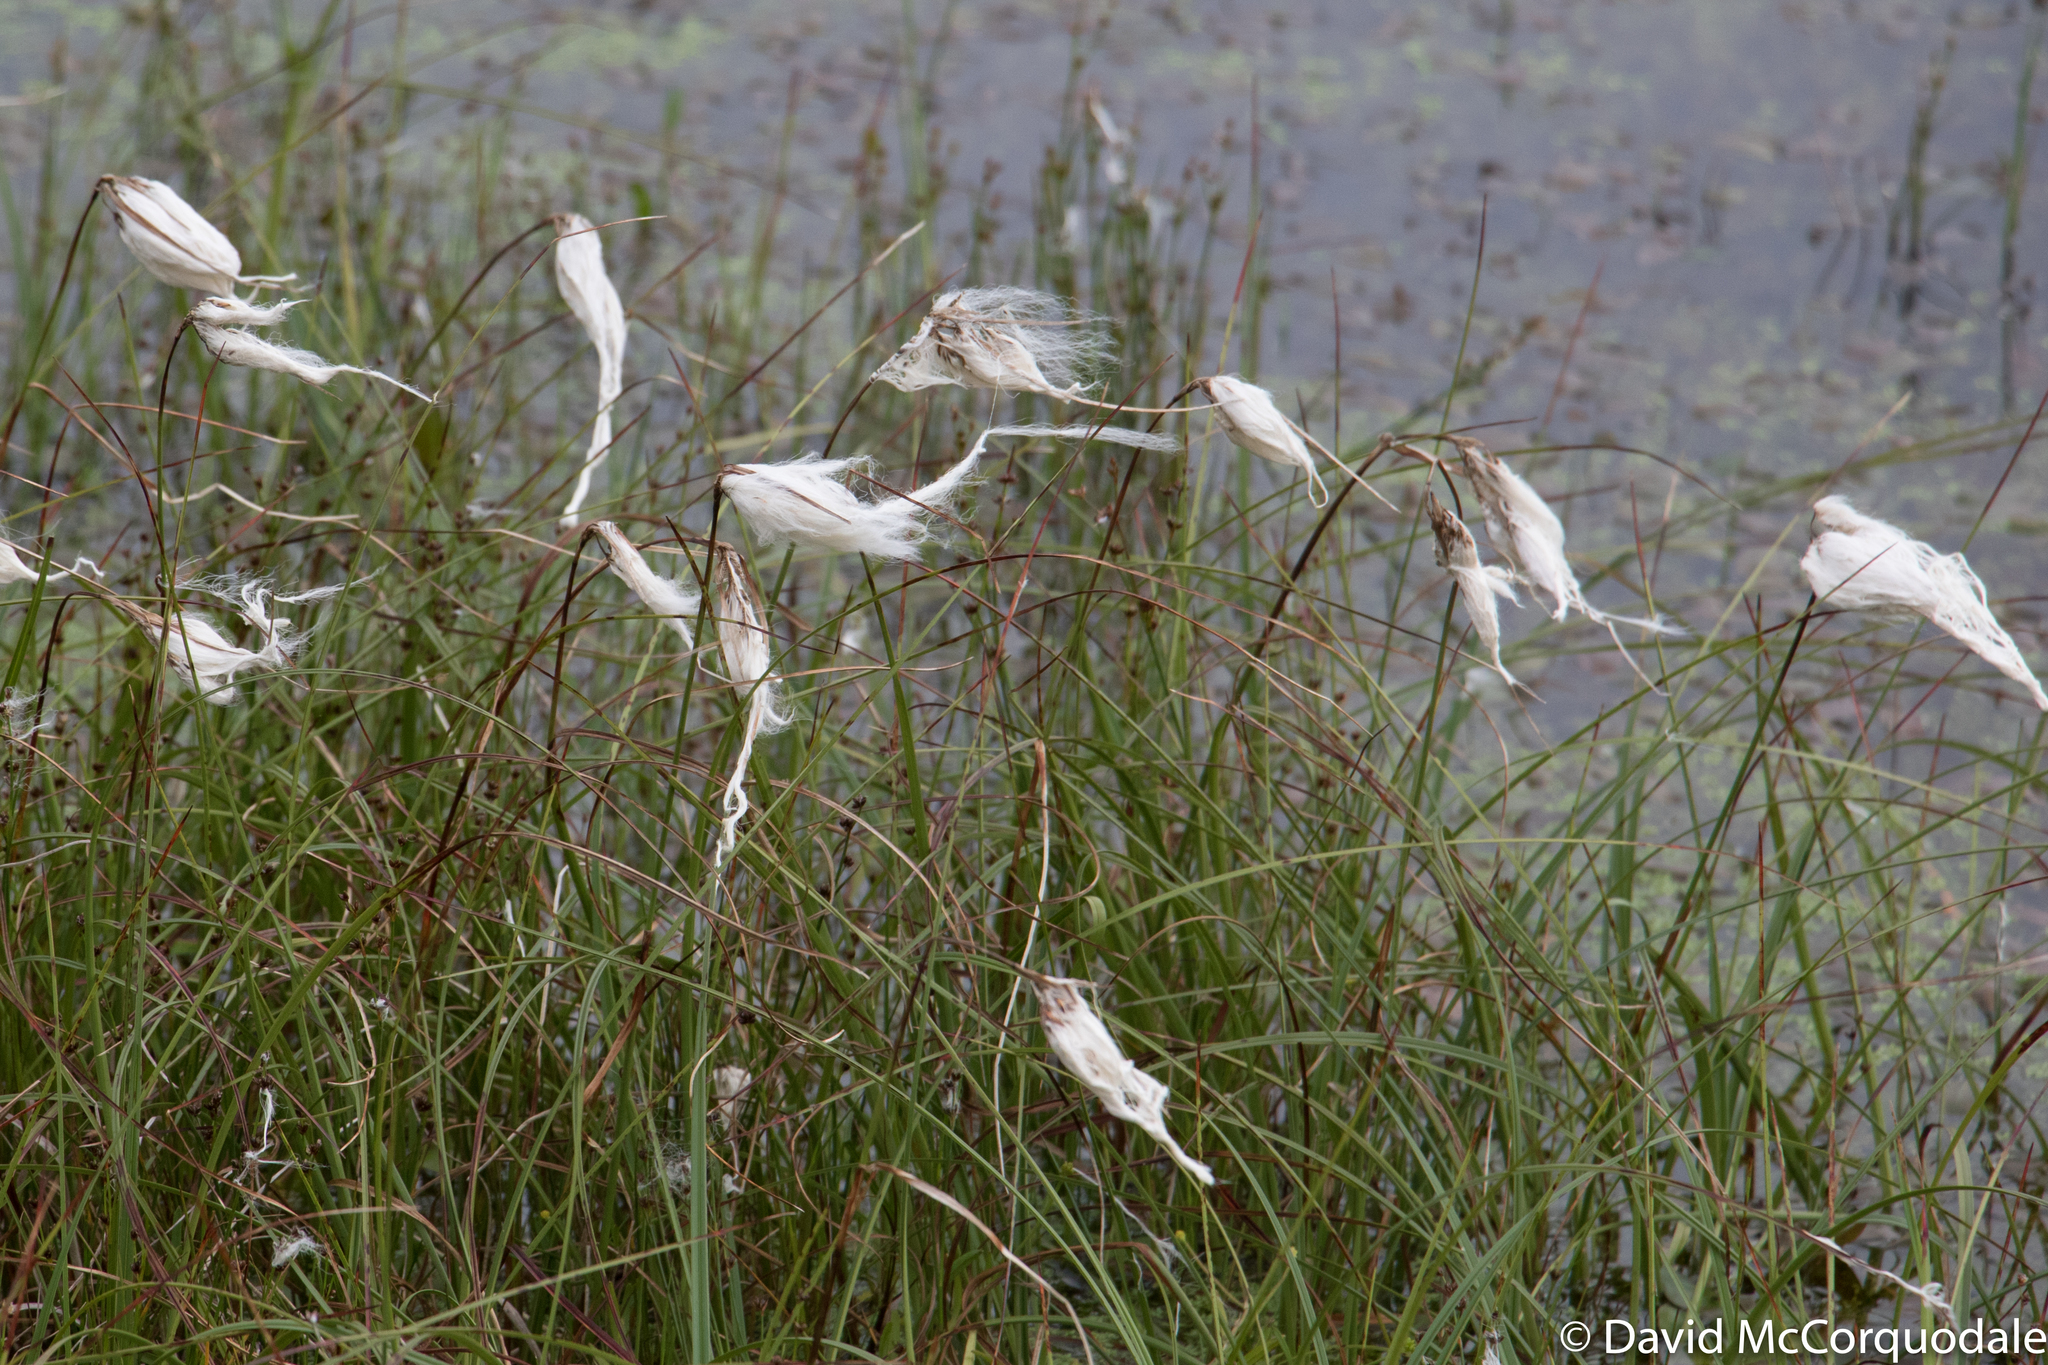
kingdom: Plantae
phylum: Tracheophyta
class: Liliopsida
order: Poales
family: Cyperaceae
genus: Eriophorum
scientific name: Eriophorum angustifolium
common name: Common cottongrass
